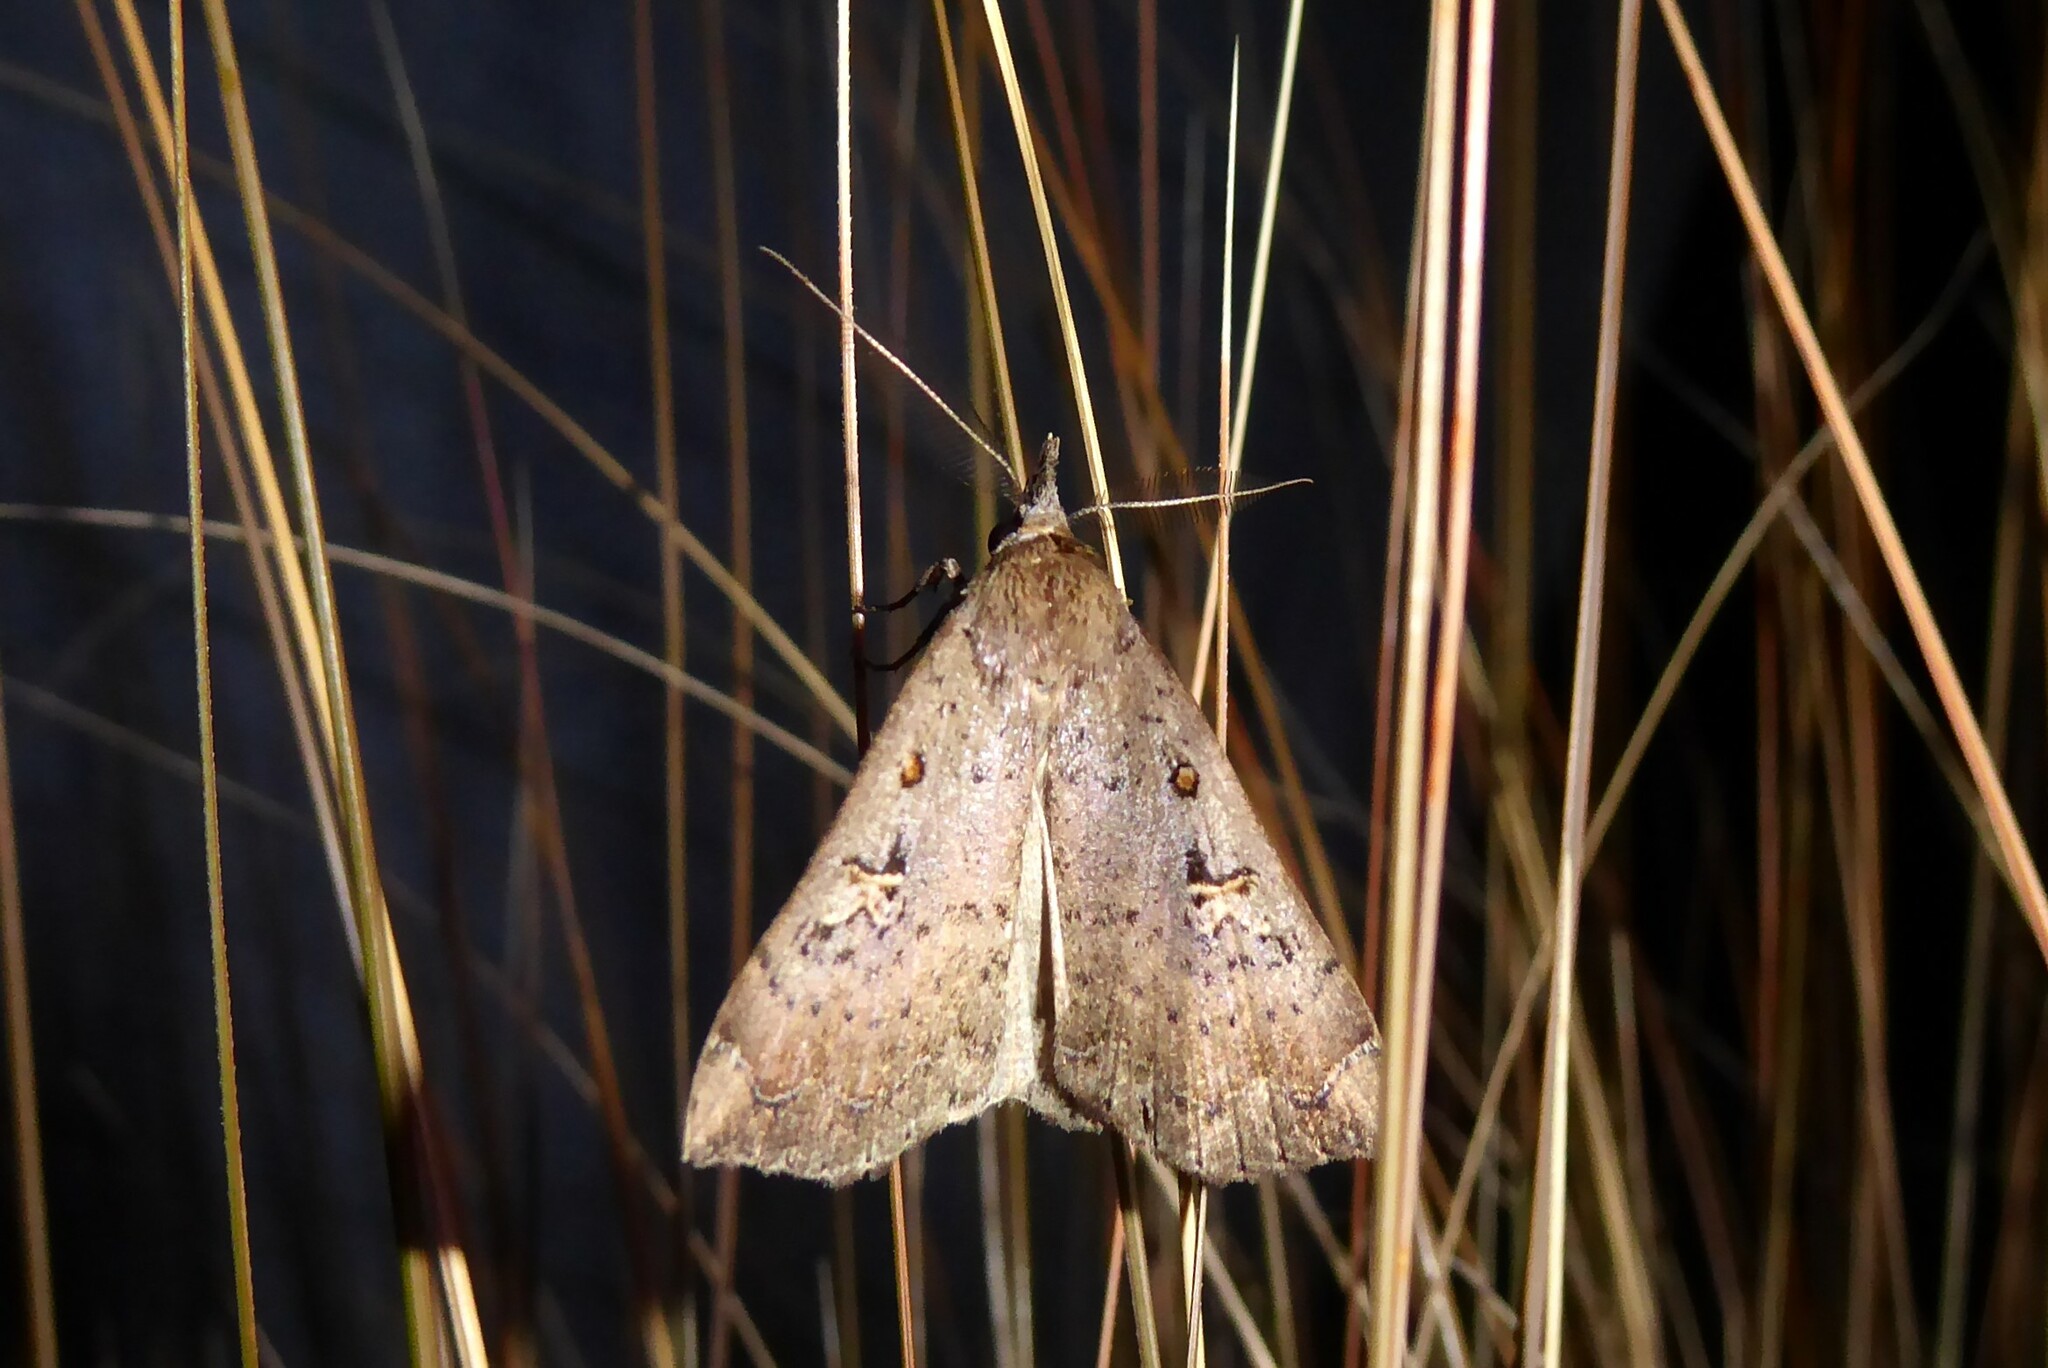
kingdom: Animalia
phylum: Arthropoda
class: Insecta
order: Lepidoptera
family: Erebidae
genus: Rhapsa
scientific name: Rhapsa scotosialis
